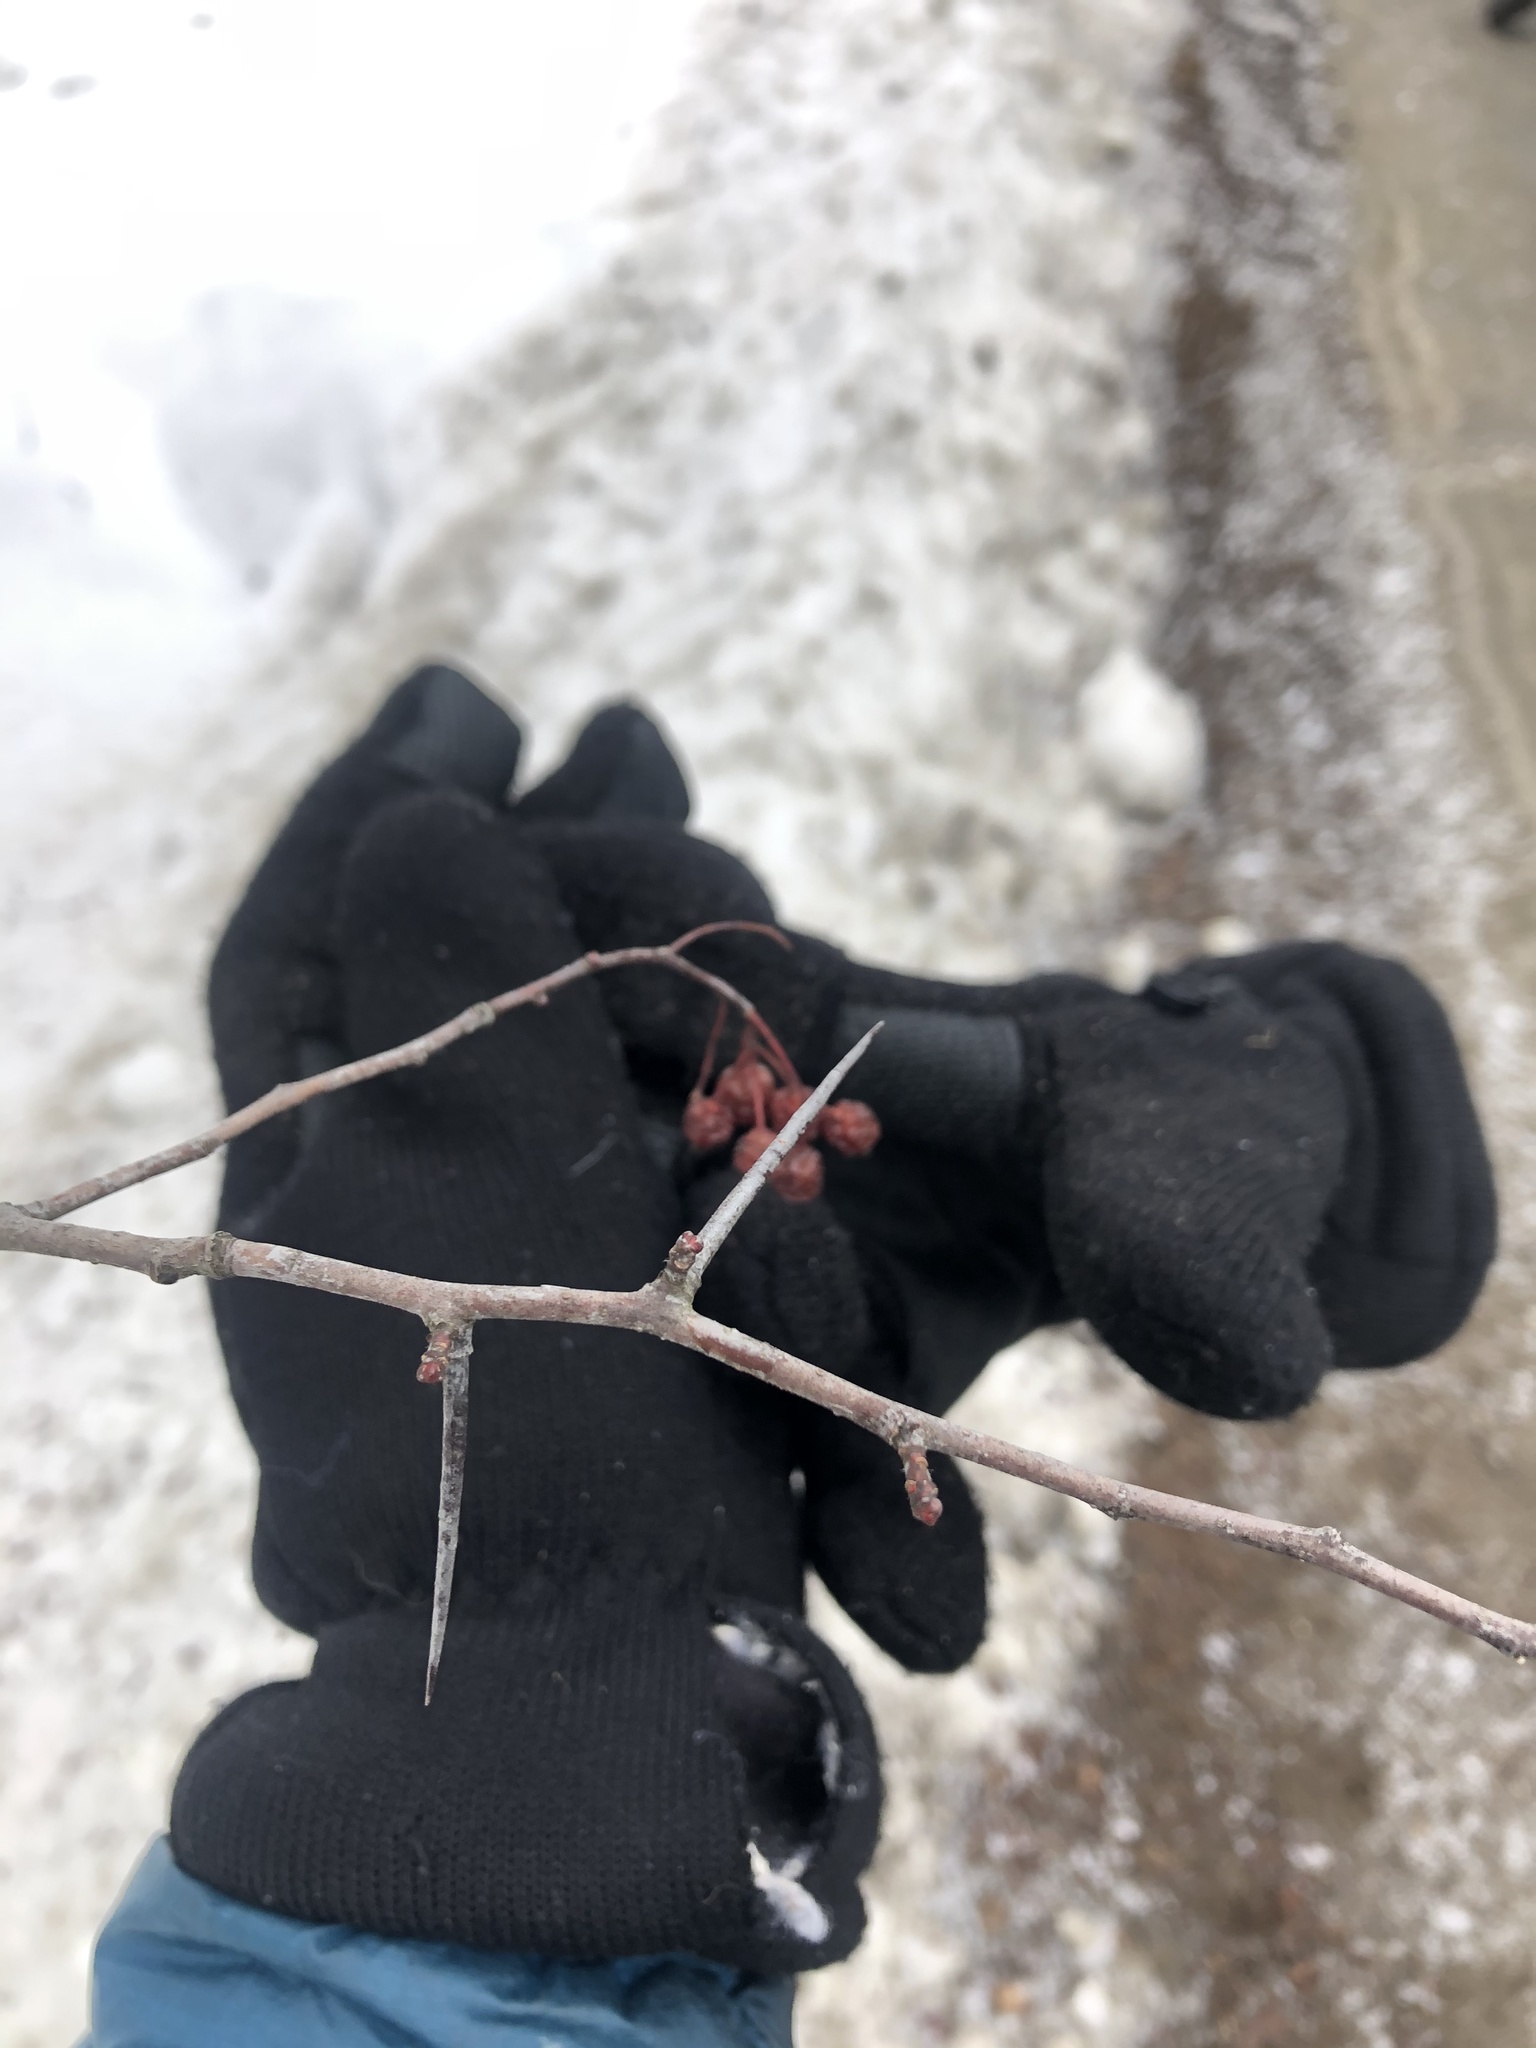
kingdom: Plantae
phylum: Tracheophyta
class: Magnoliopsida
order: Rosales
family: Rosaceae
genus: Crataegus
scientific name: Crataegus
